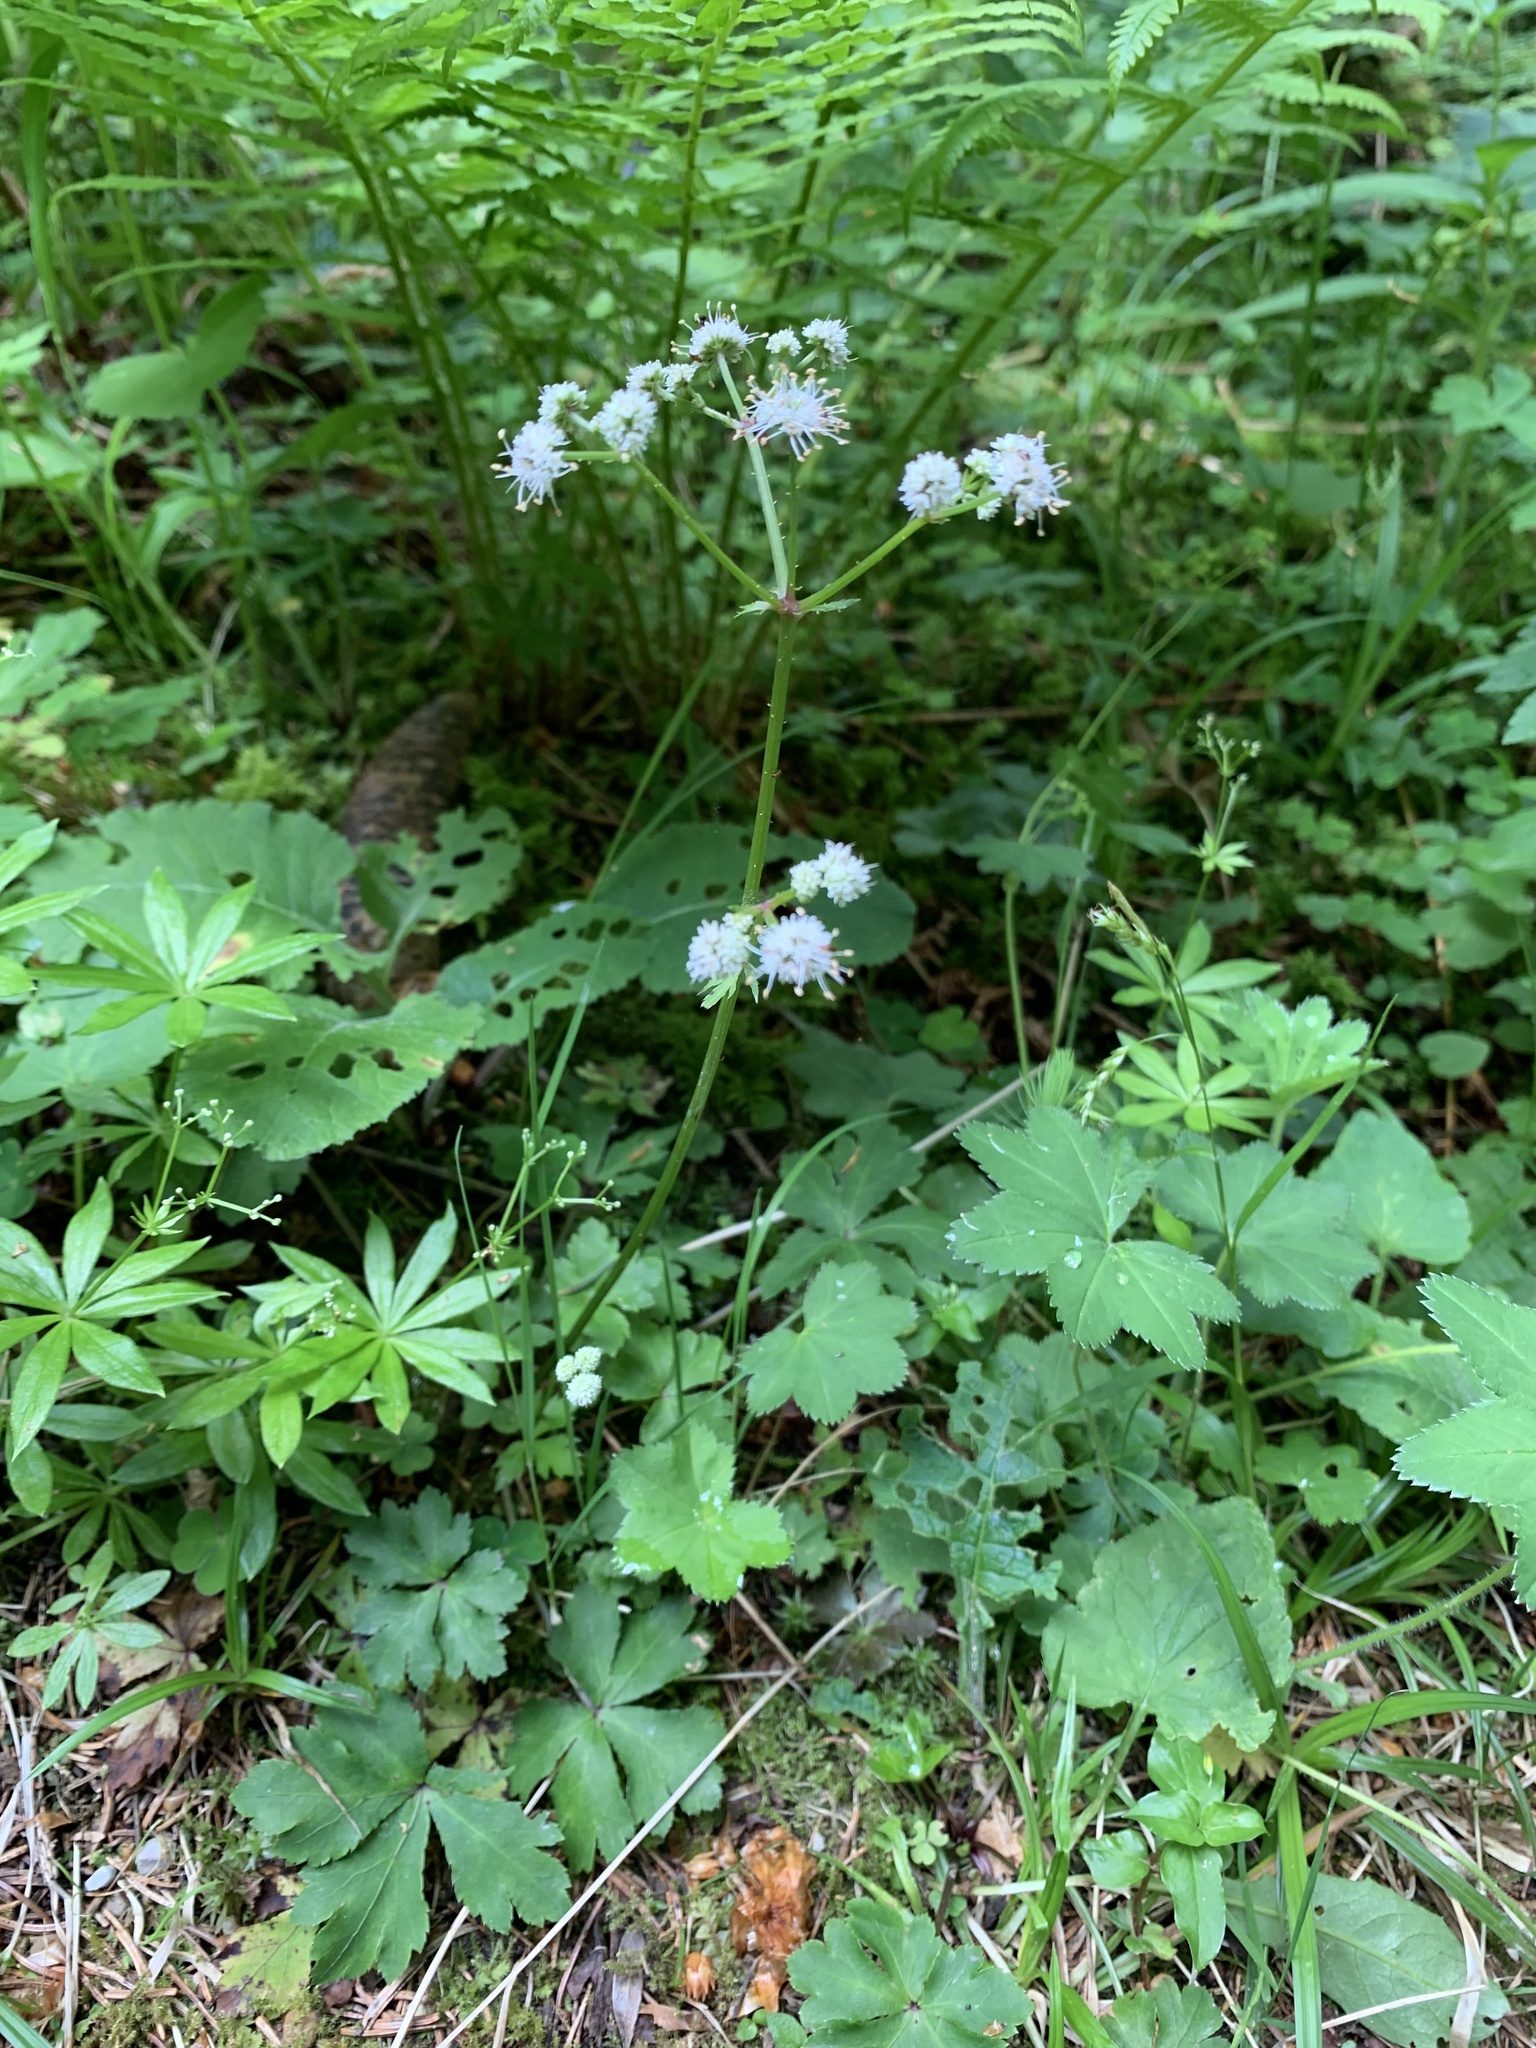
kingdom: Plantae
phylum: Tracheophyta
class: Magnoliopsida
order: Apiales
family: Apiaceae
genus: Sanicula
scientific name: Sanicula europaea
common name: Sanicle
